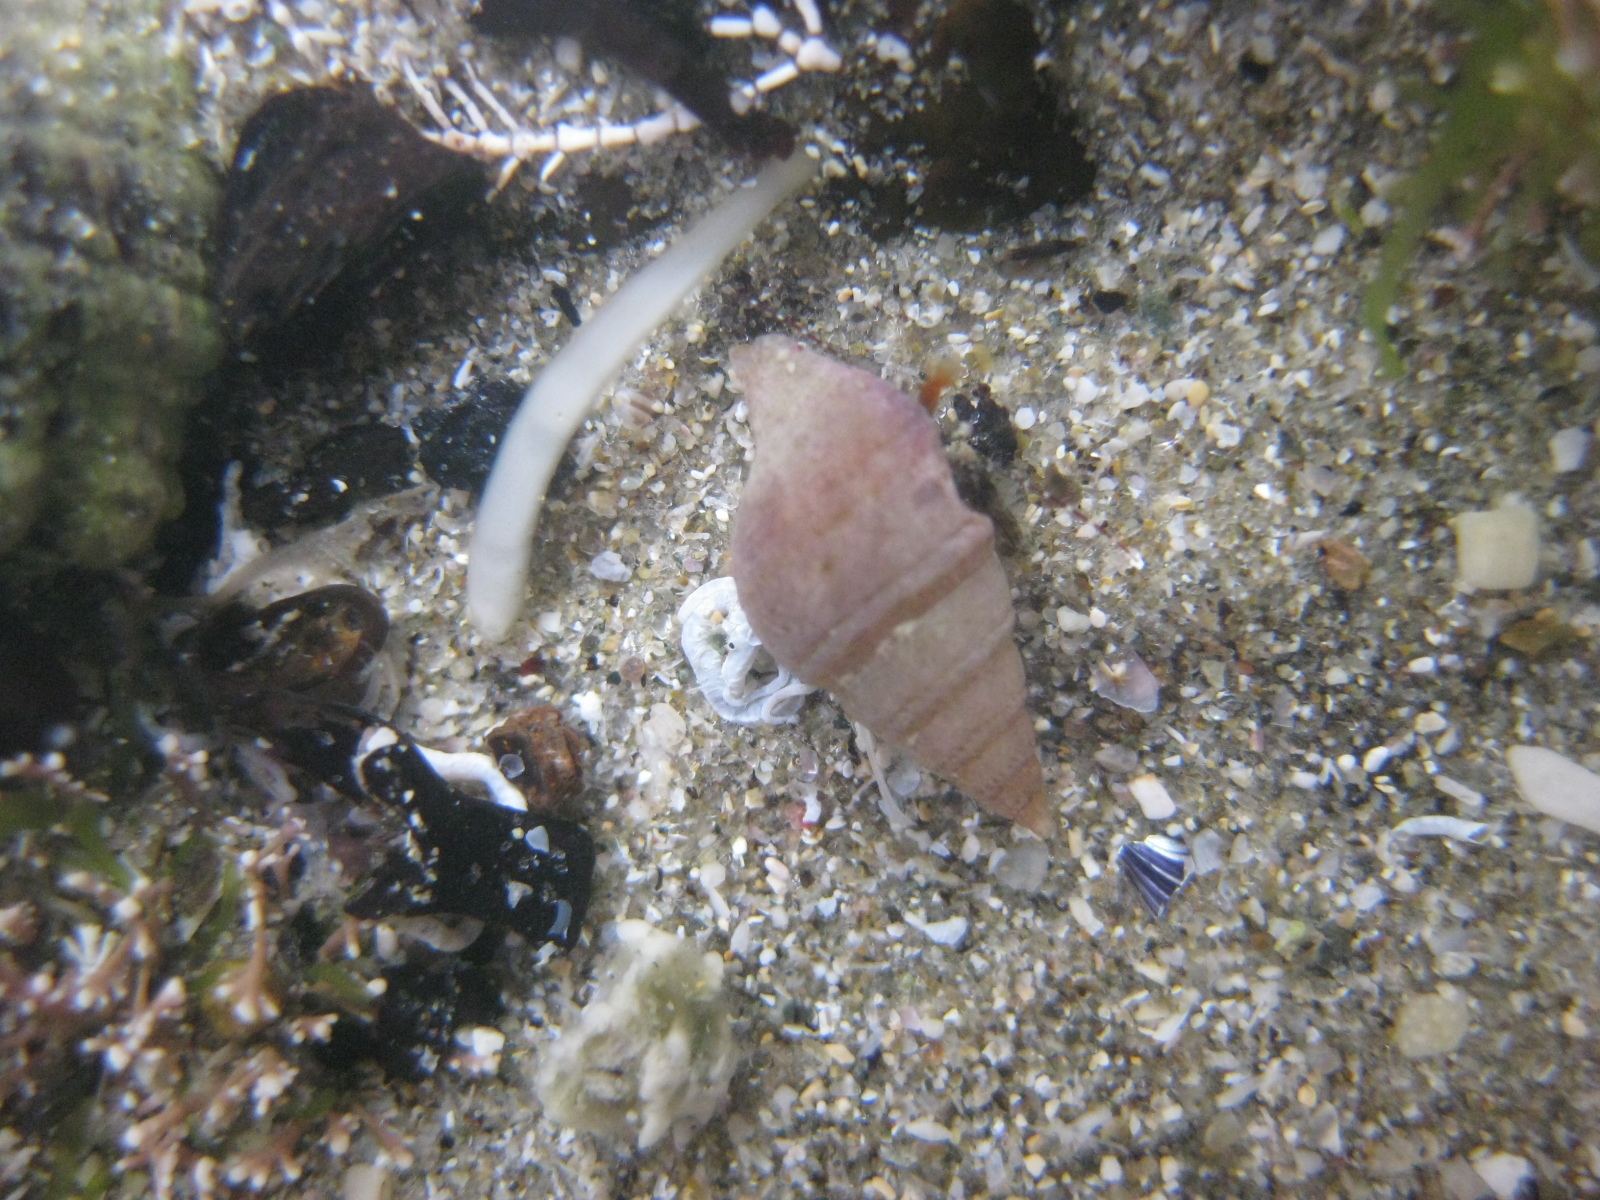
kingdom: Animalia
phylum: Mollusca
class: Gastropoda
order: Neogastropoda
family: Borsoniidae
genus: Phenatoma
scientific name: Phenatoma zealandicum
